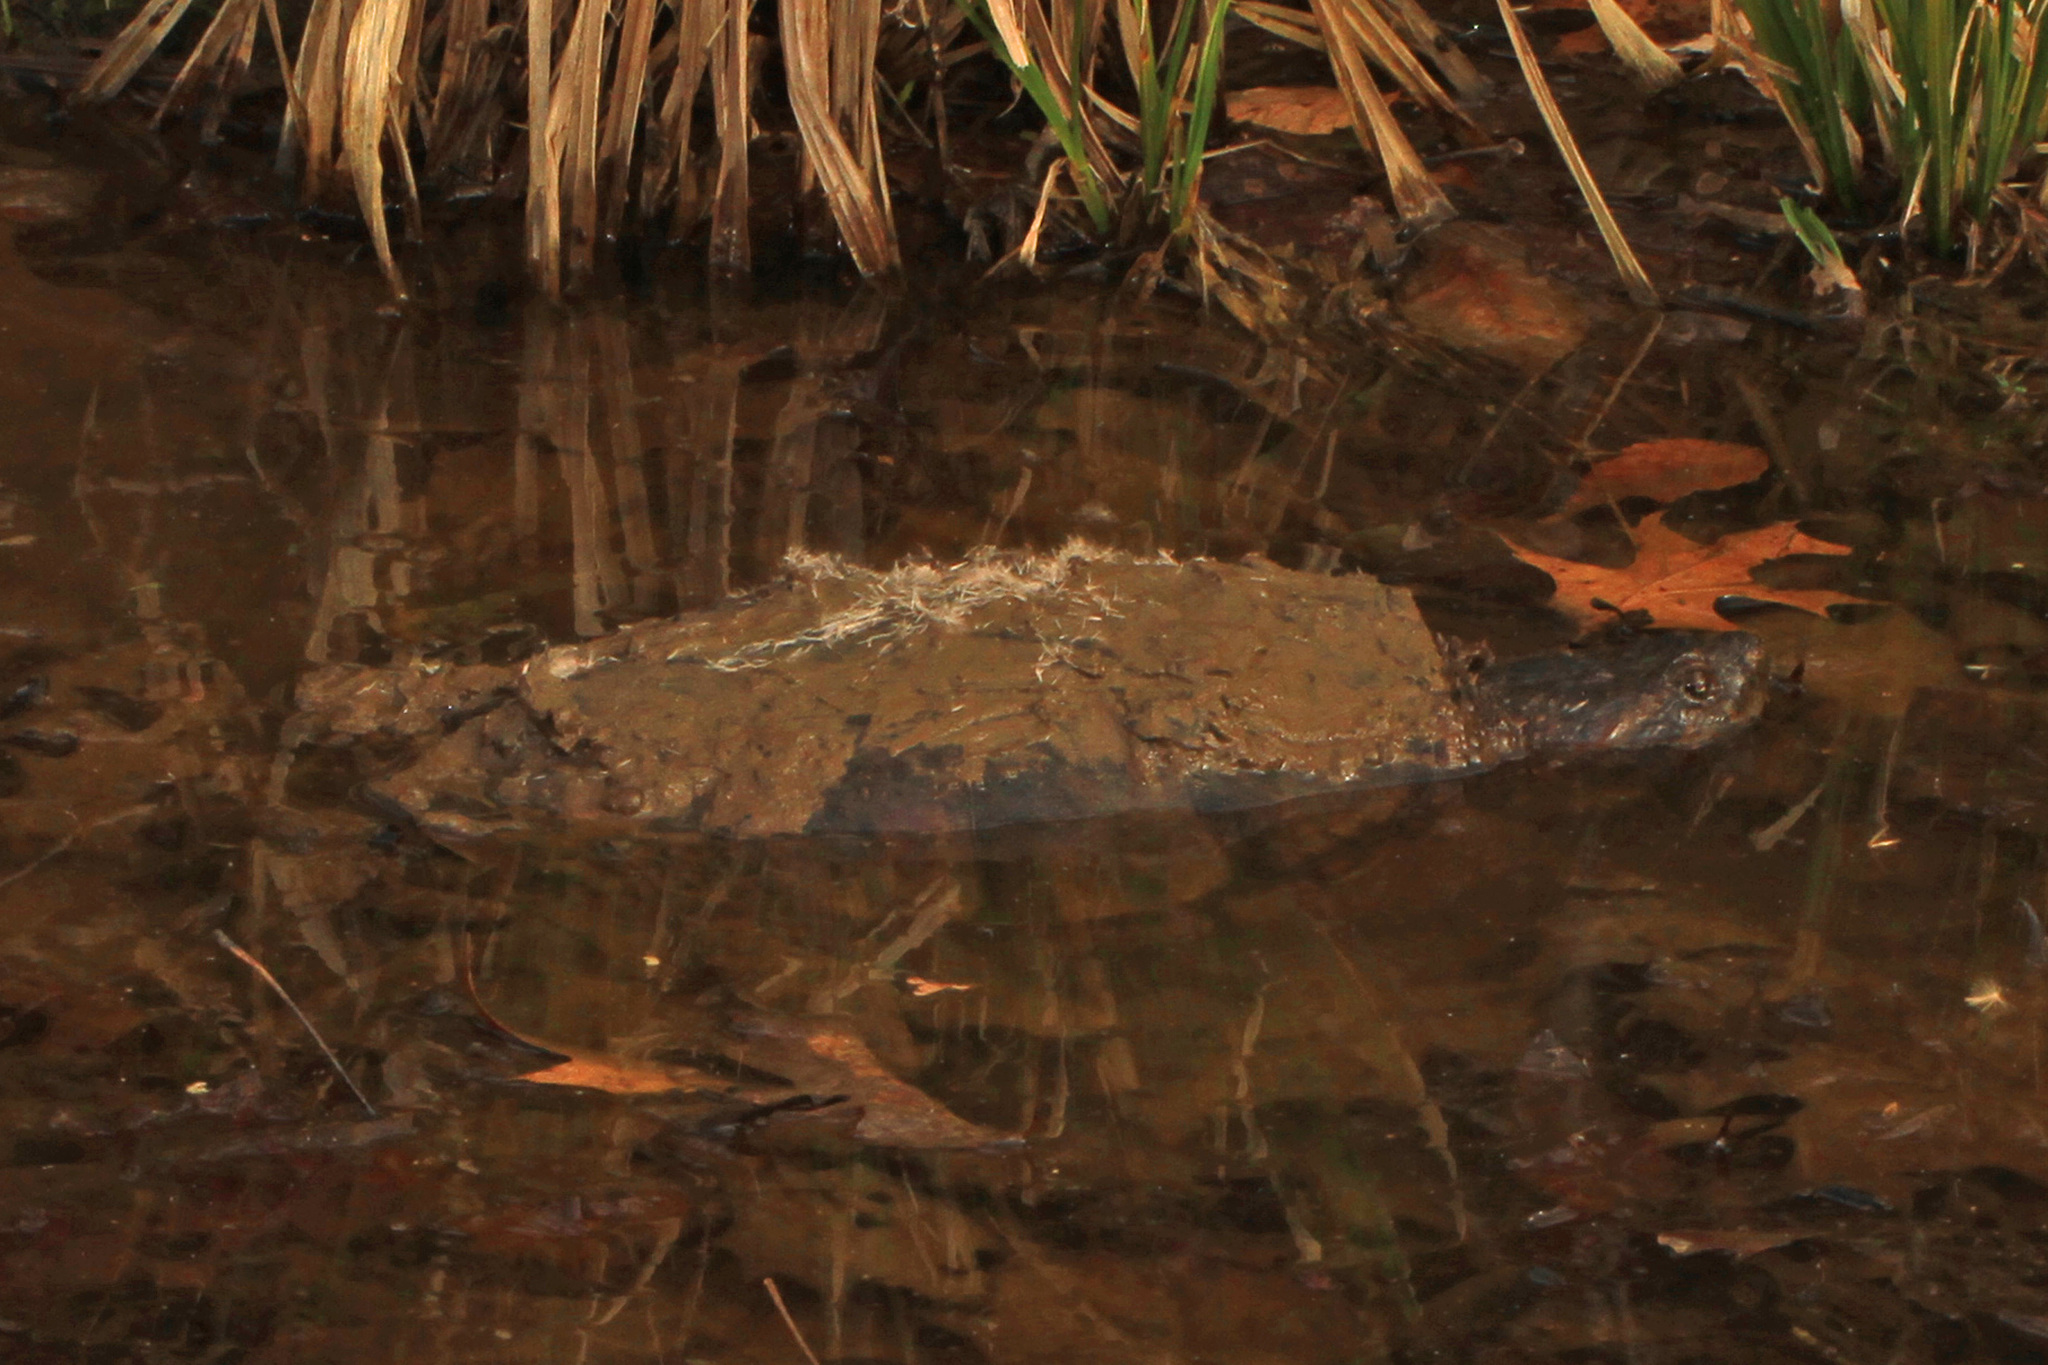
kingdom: Animalia
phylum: Chordata
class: Testudines
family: Chelydridae
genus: Chelydra
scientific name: Chelydra serpentina
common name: Common snapping turtle
